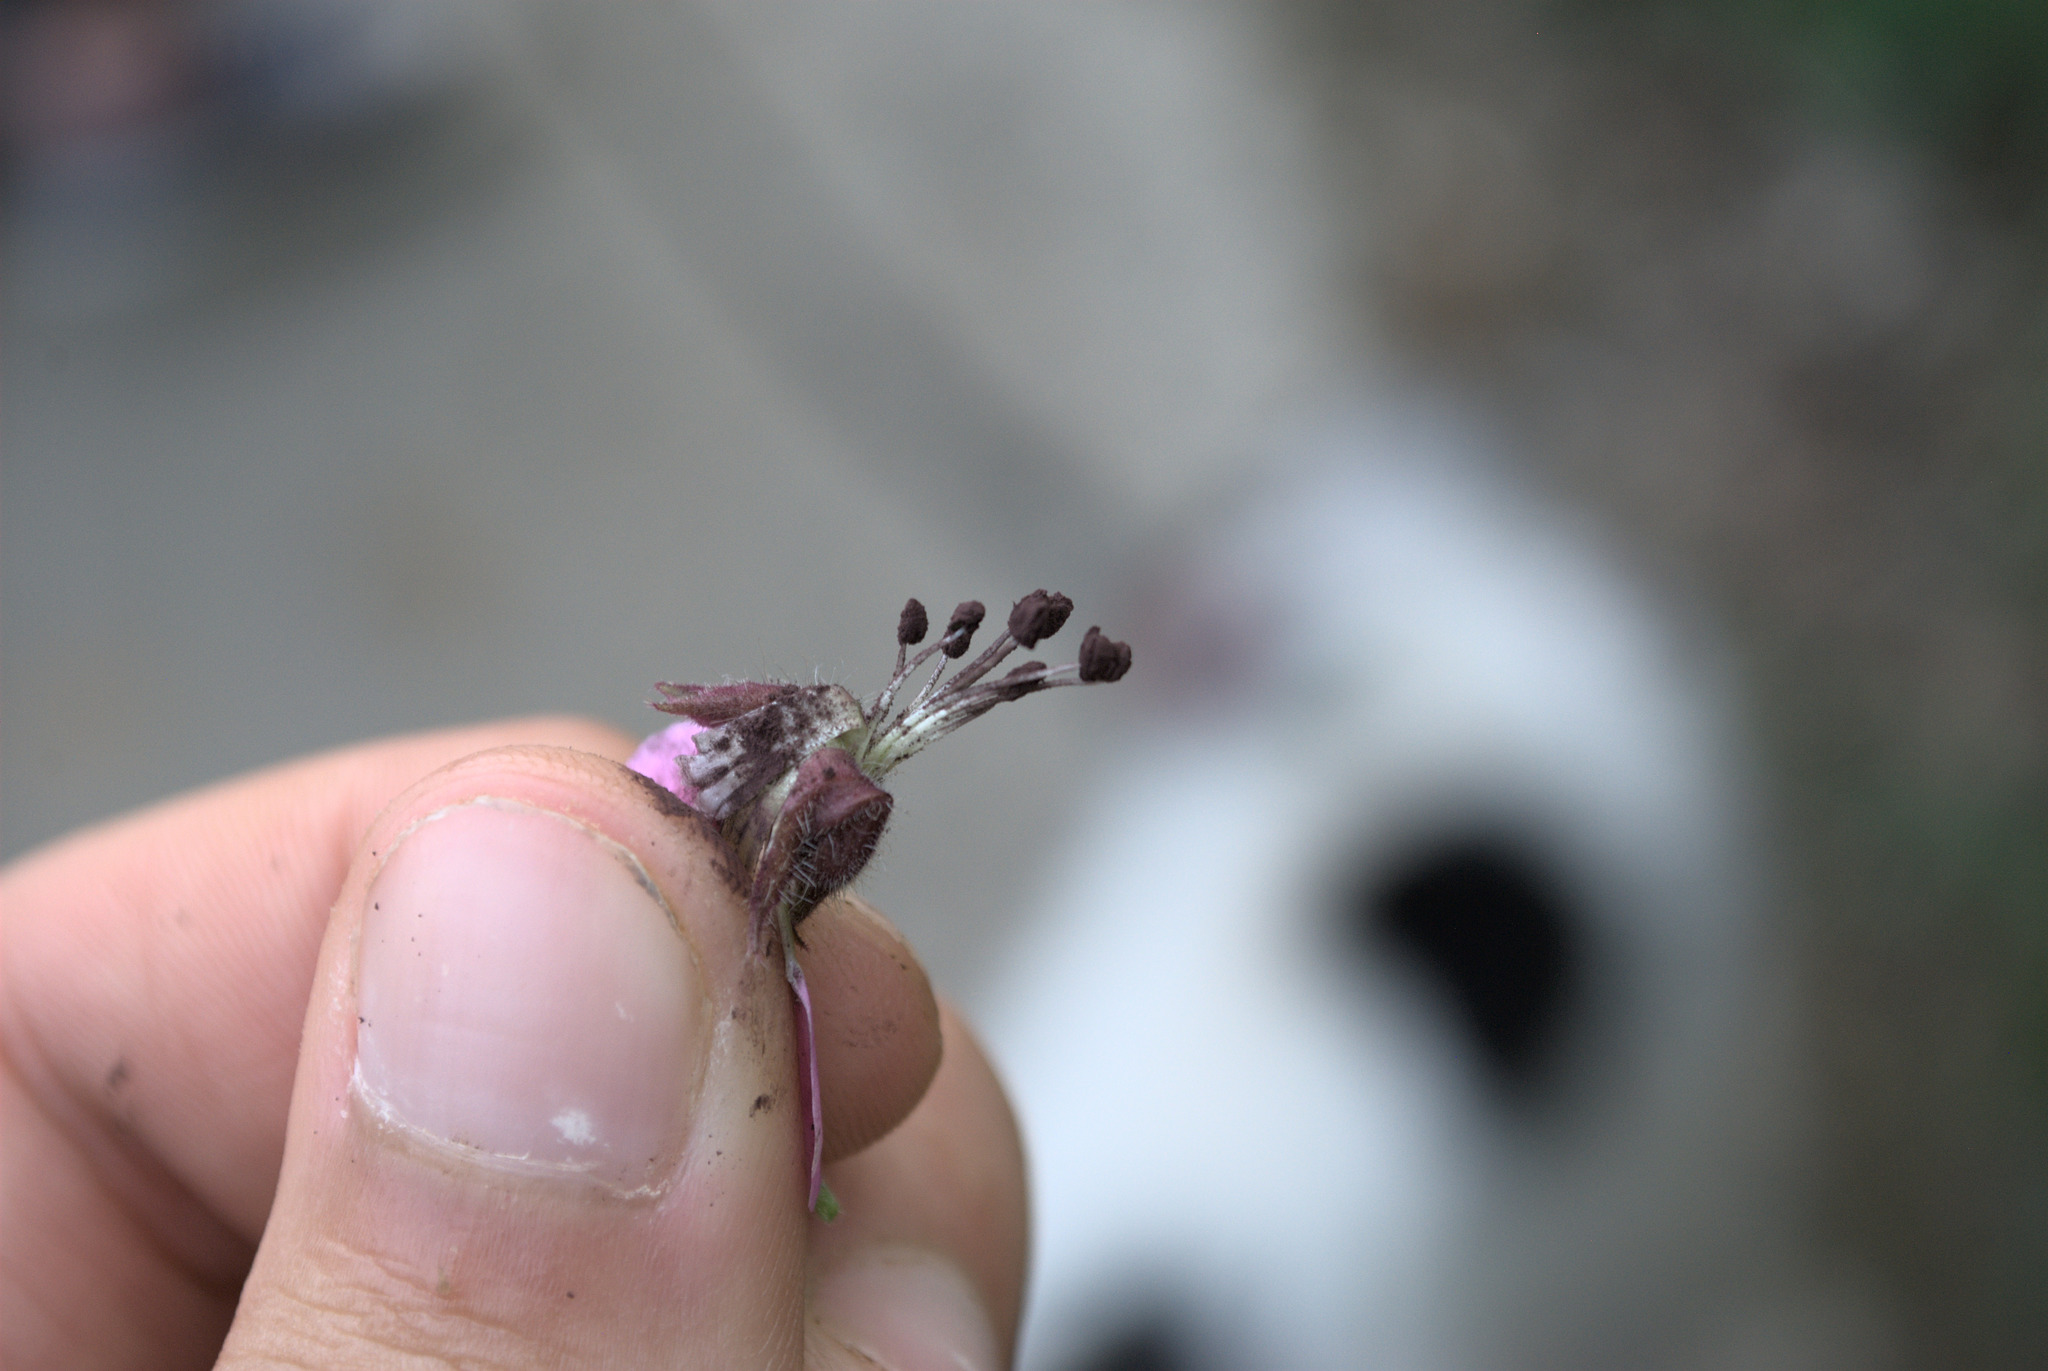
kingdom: Fungi
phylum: Basidiomycota
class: Microbotryomycetes
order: Microbotryales
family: Microbotryaceae
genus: Microbotryum
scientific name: Microbotryum silenes-dioicae
